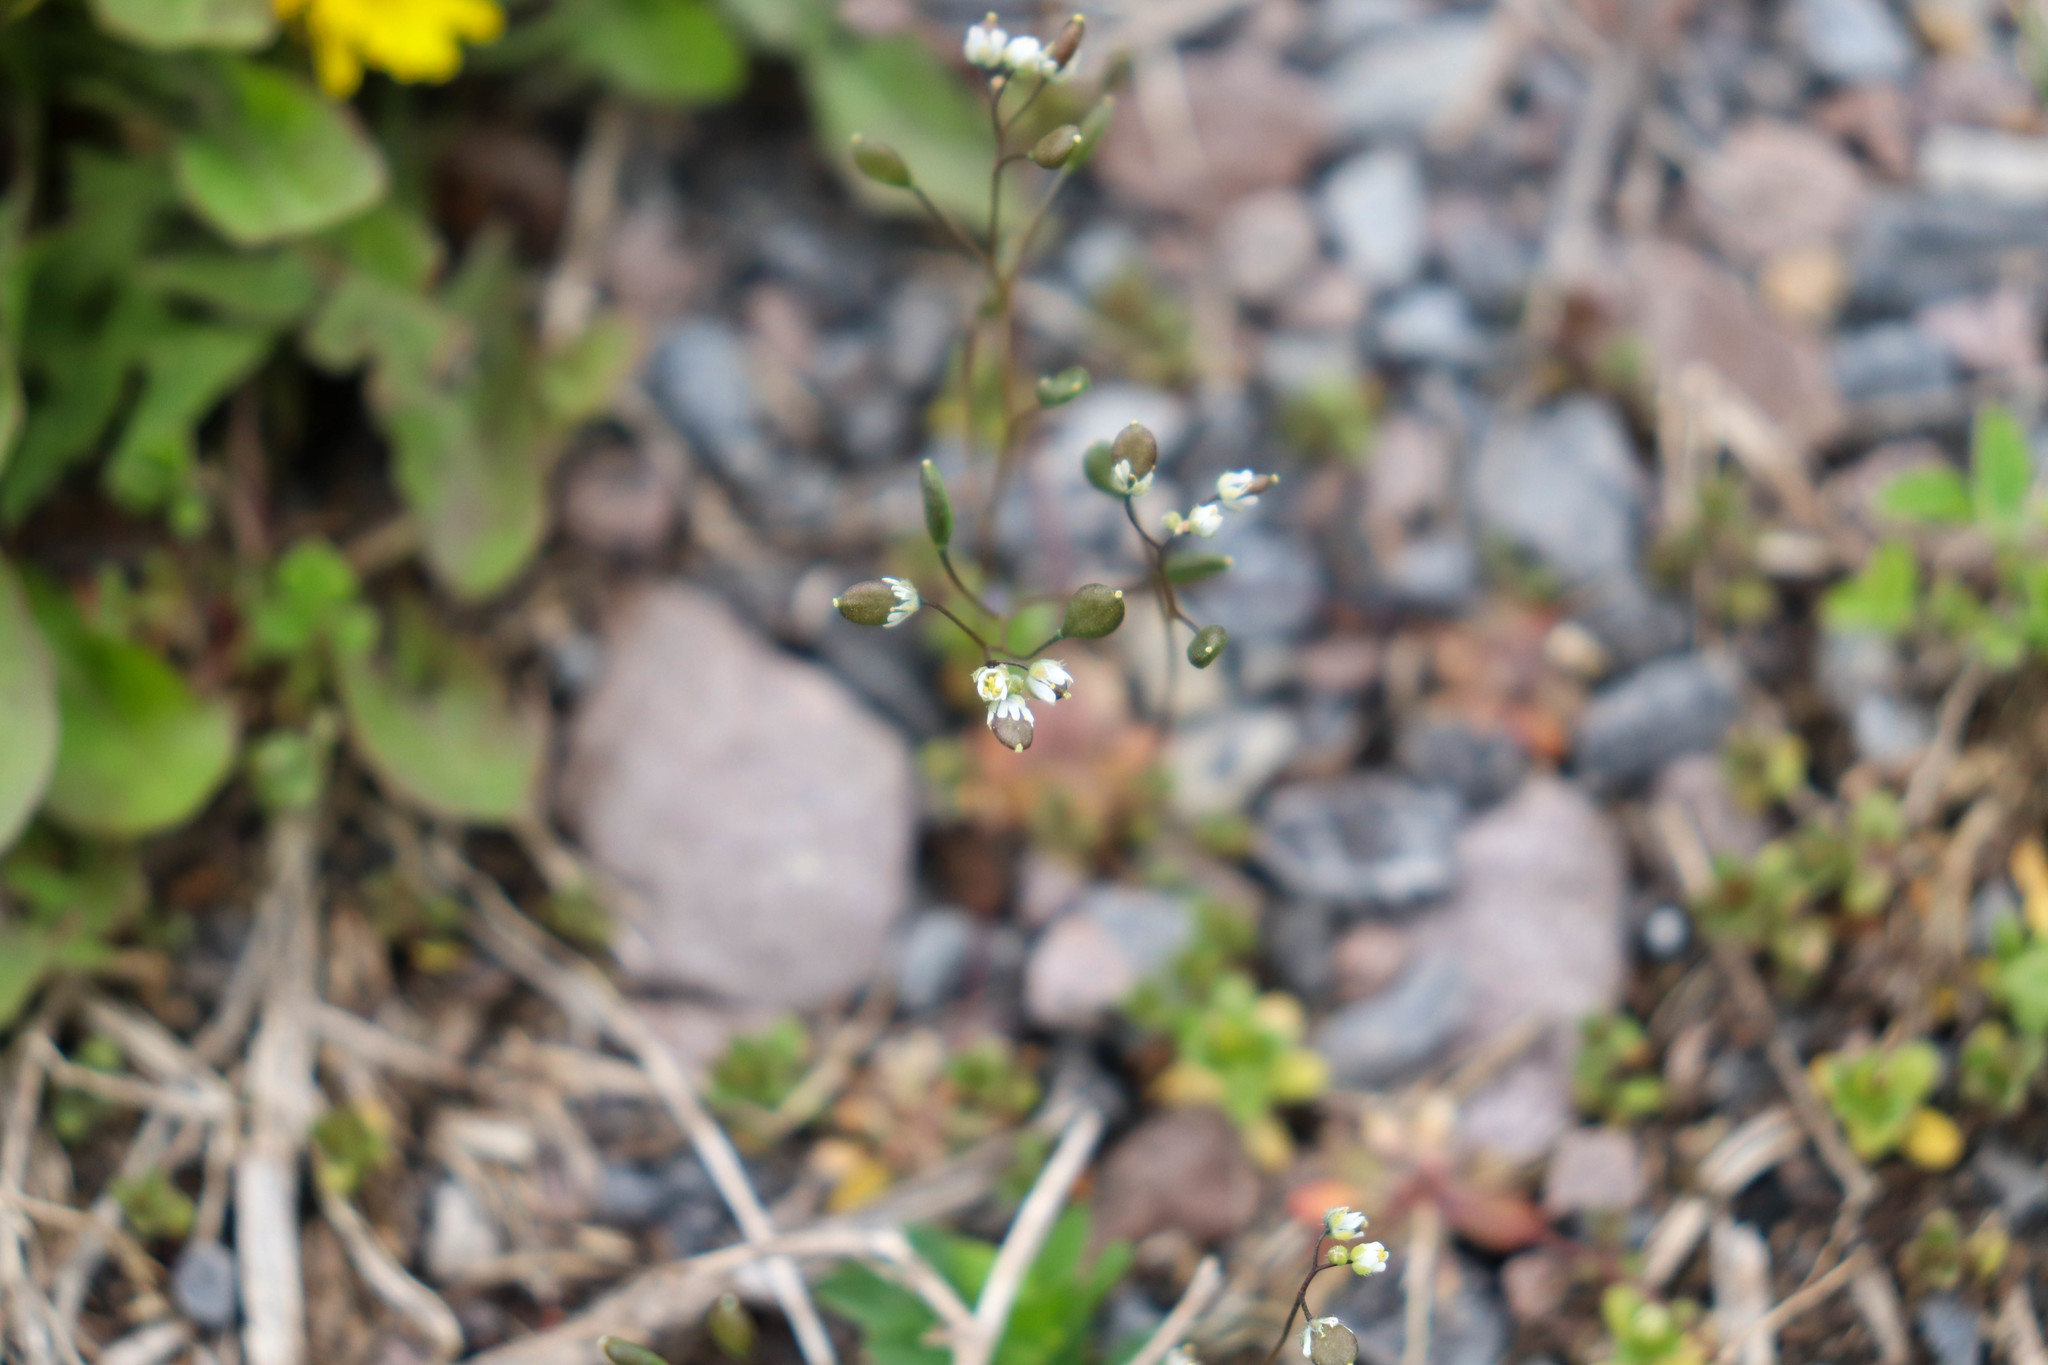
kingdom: Plantae
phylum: Tracheophyta
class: Magnoliopsida
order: Brassicales
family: Brassicaceae
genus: Draba
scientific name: Draba verna
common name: Spring draba
